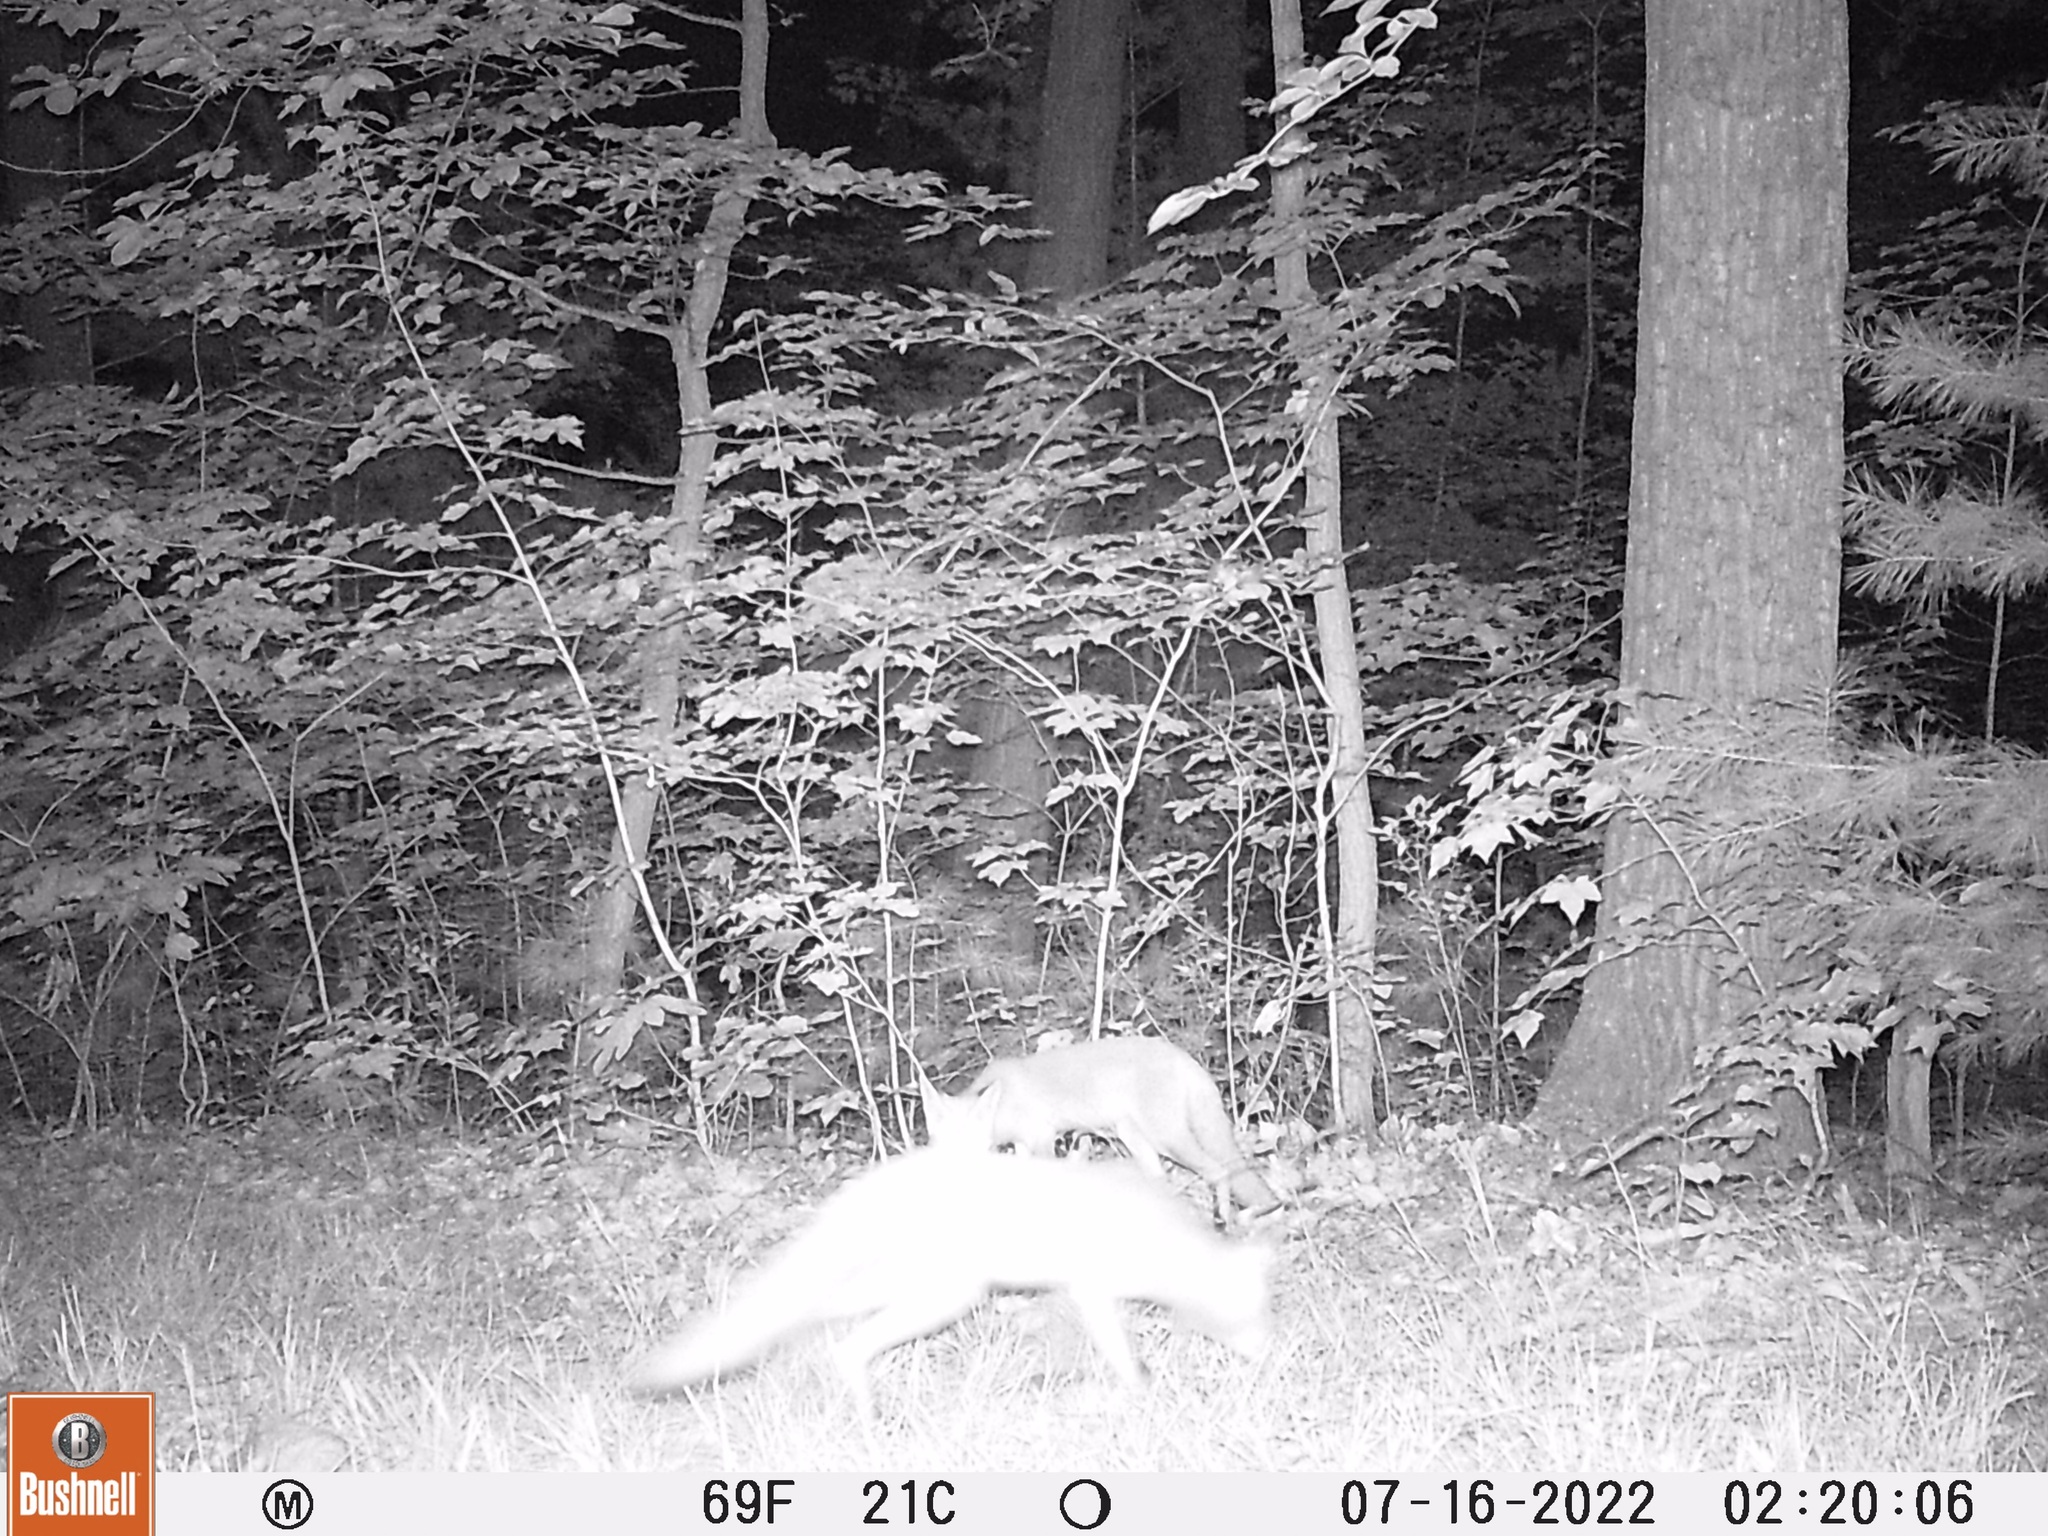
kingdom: Animalia
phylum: Chordata
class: Mammalia
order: Carnivora
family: Canidae
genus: Vulpes
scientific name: Vulpes vulpes
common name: Red fox
